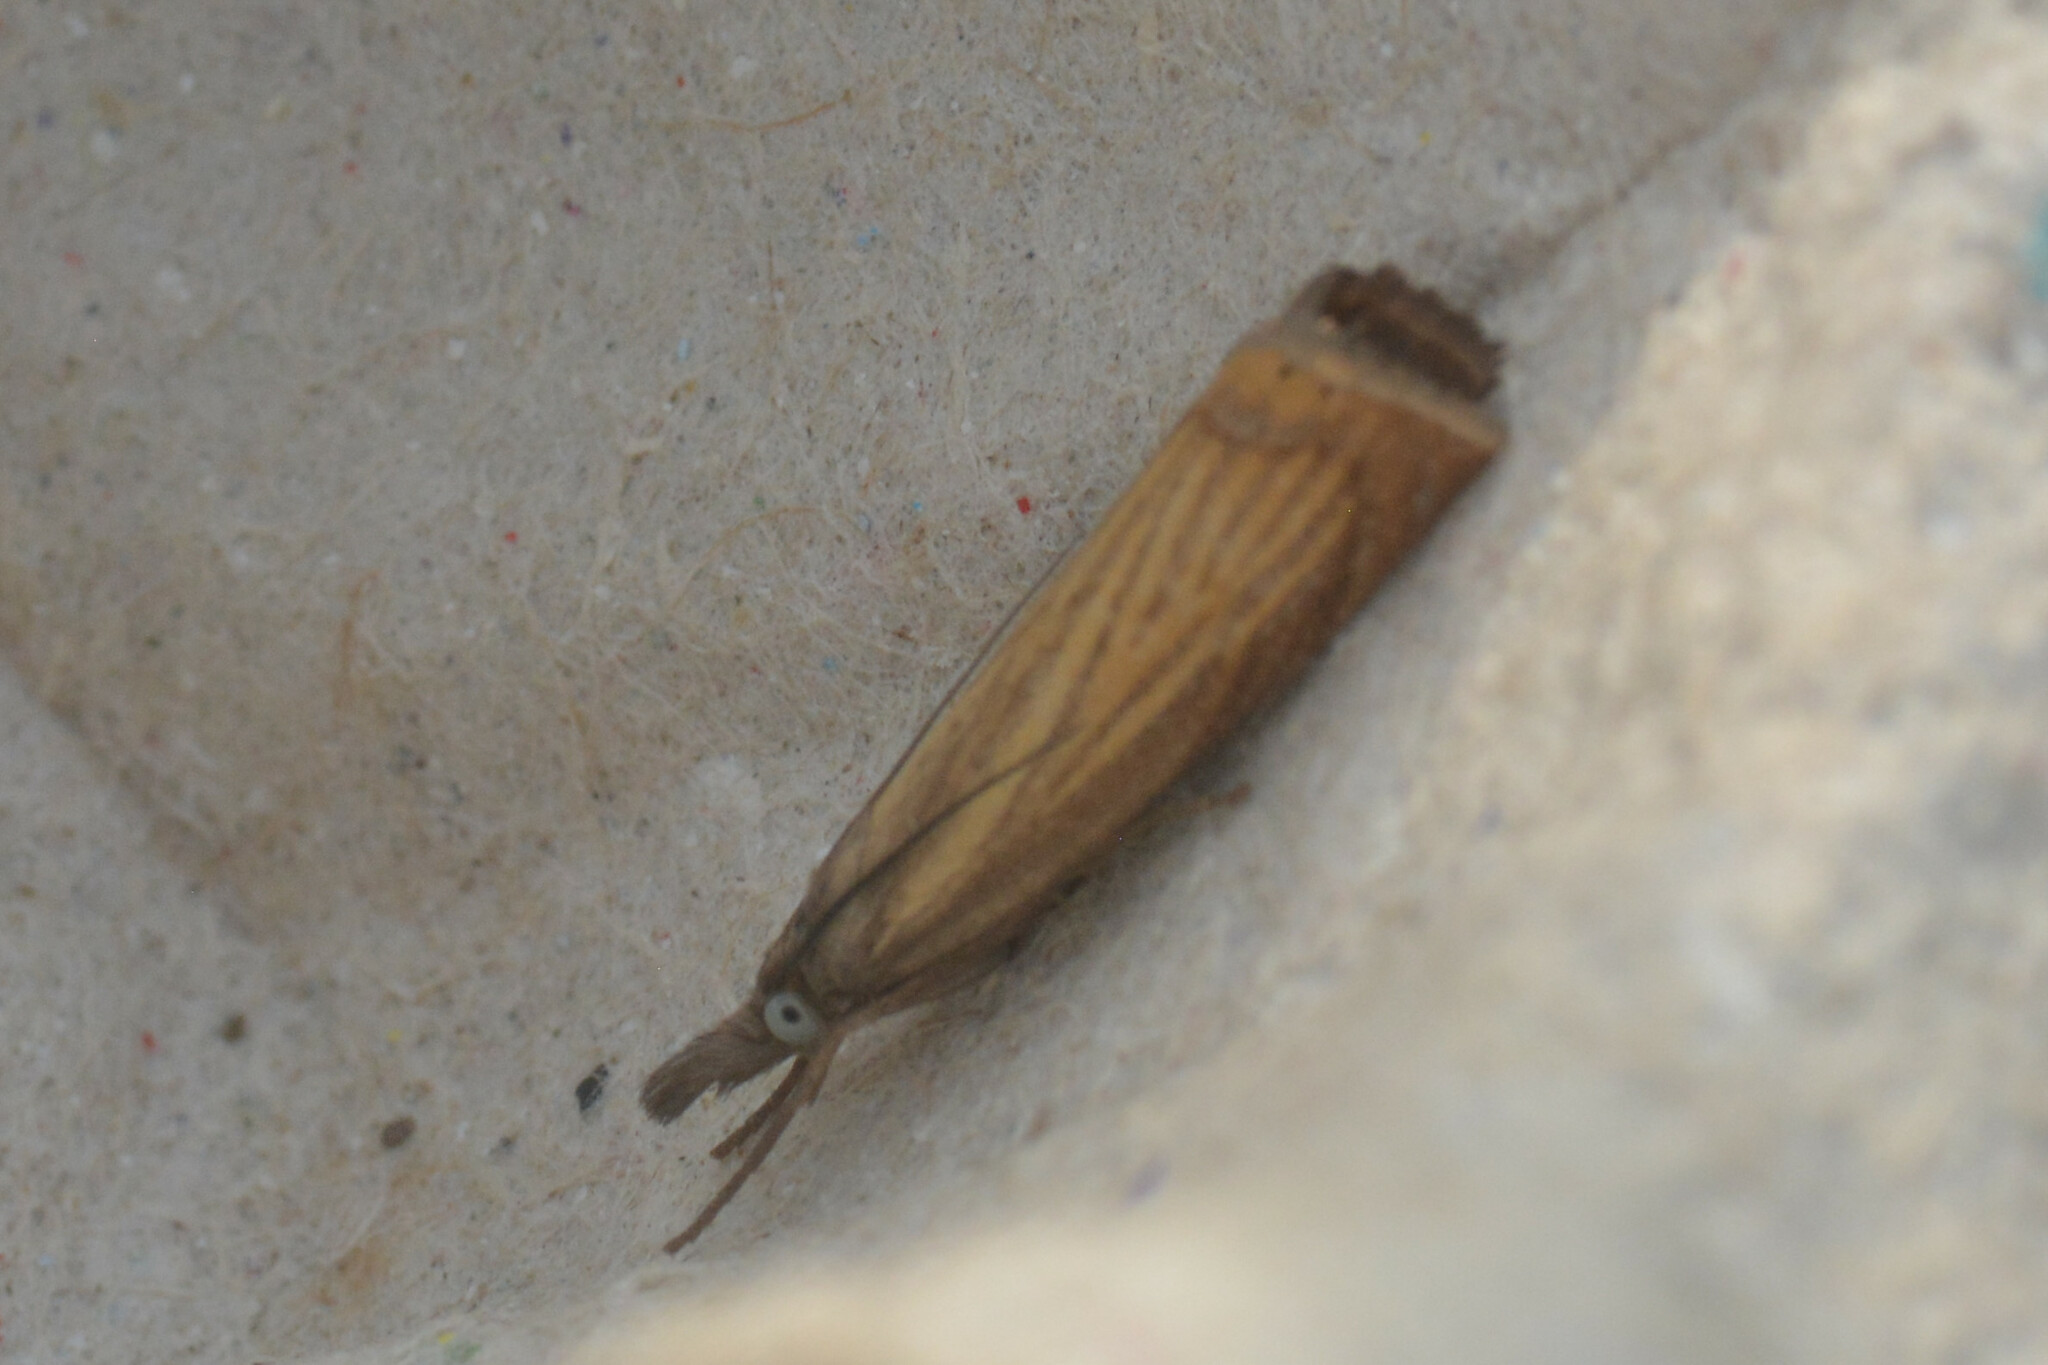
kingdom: Animalia
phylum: Arthropoda
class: Insecta
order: Lepidoptera
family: Crambidae
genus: Chrysoteuchia
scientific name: Chrysoteuchia culmella
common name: Garden grass-veneer
